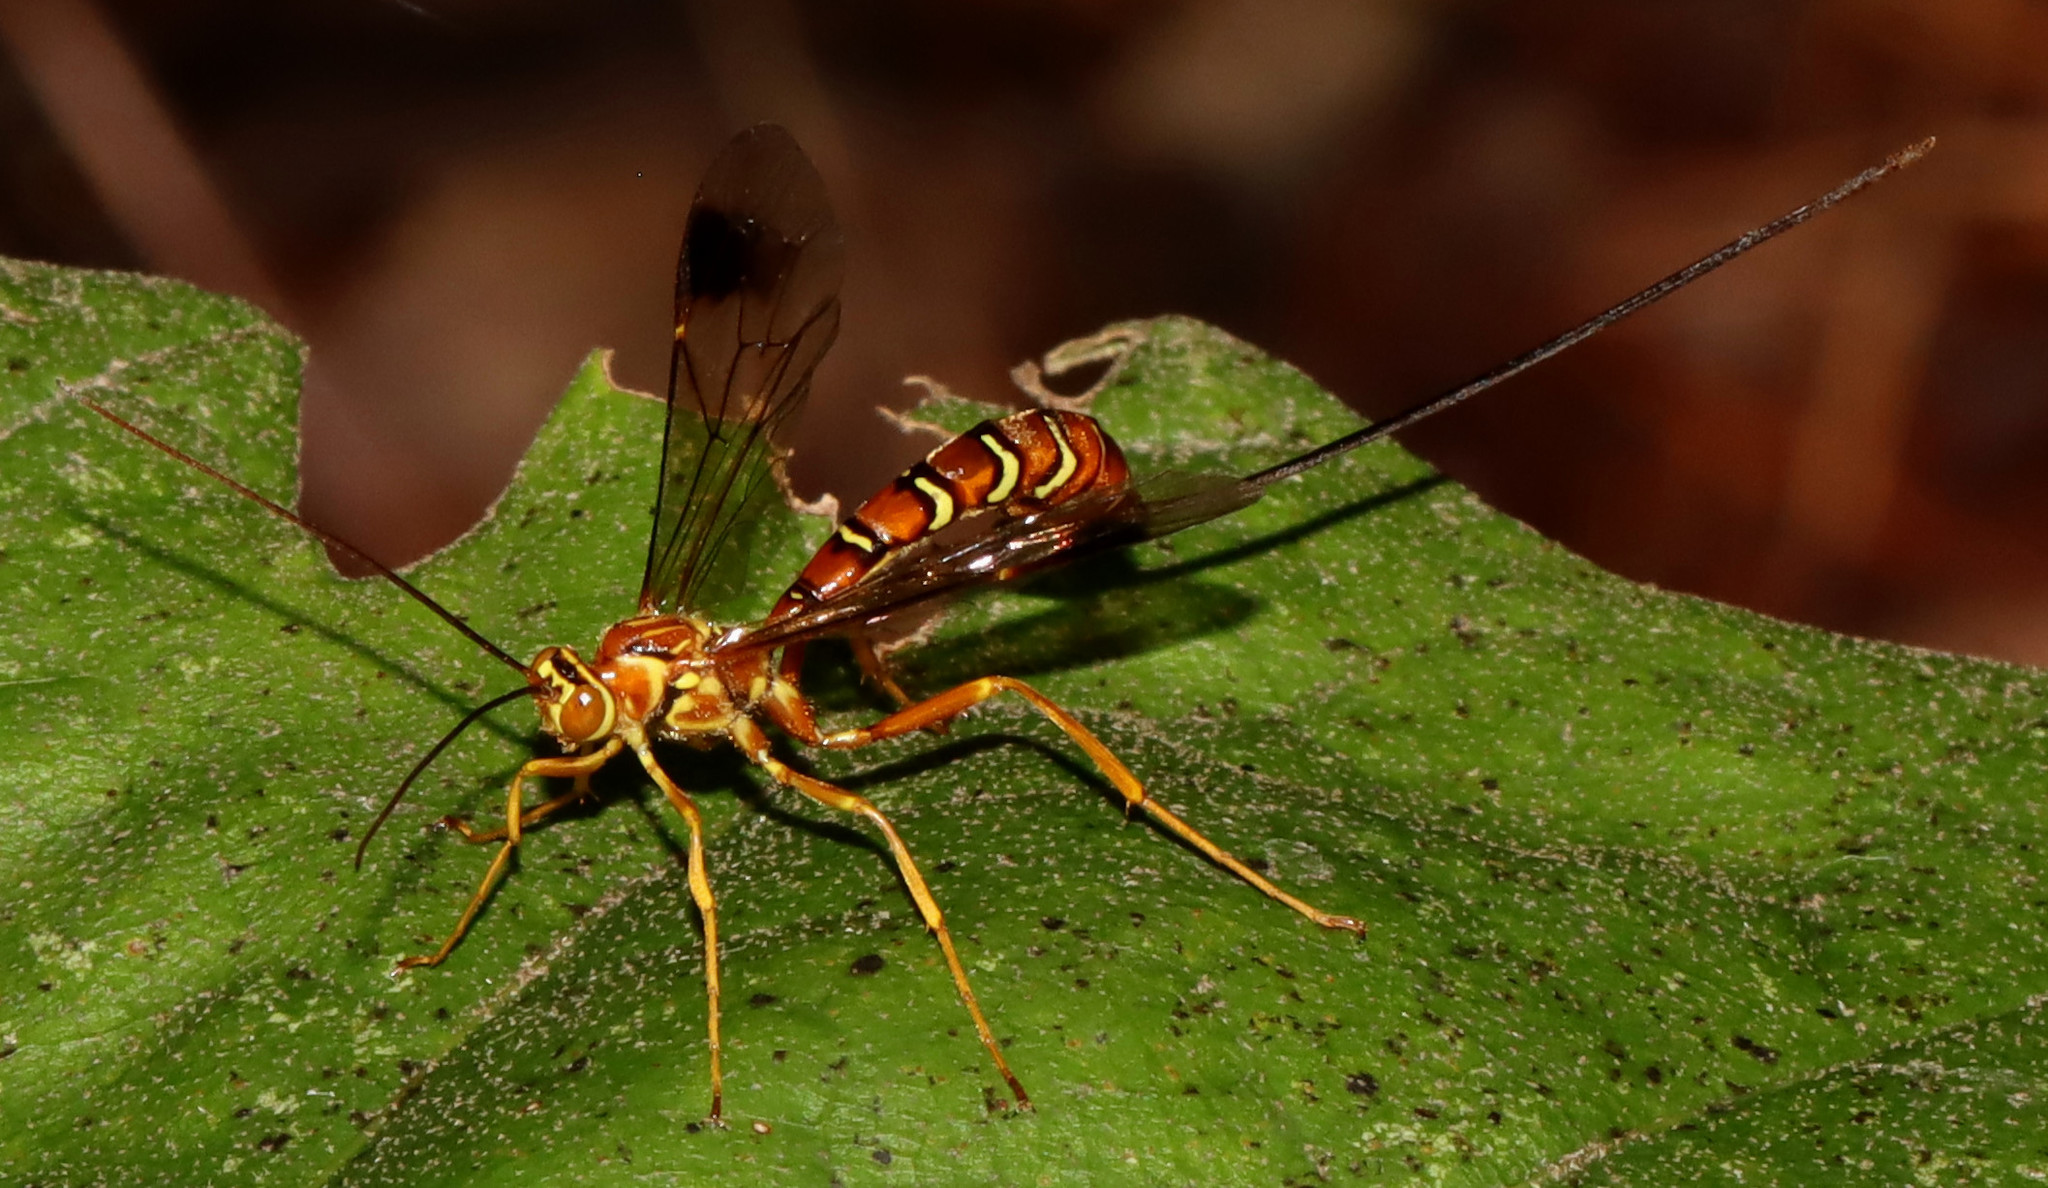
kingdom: Animalia
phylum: Arthropoda
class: Insecta
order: Hymenoptera
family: Ichneumonidae
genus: Megarhyssa
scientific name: Megarhyssa greenei
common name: Greene's giant ichneumonid wasp
